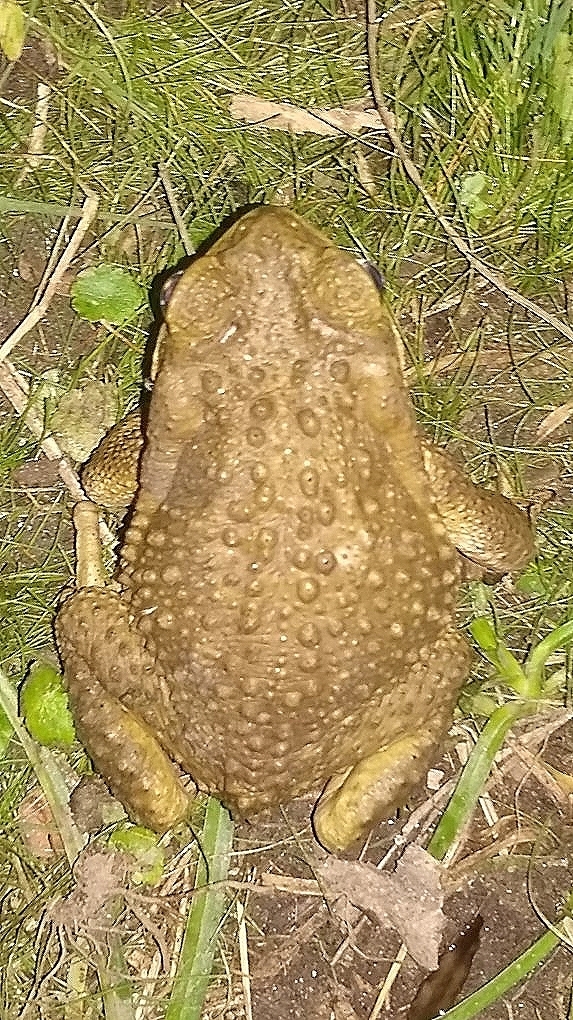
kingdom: Animalia
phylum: Chordata
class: Amphibia
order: Anura
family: Bufonidae
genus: Rhinella
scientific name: Rhinella arenarum
